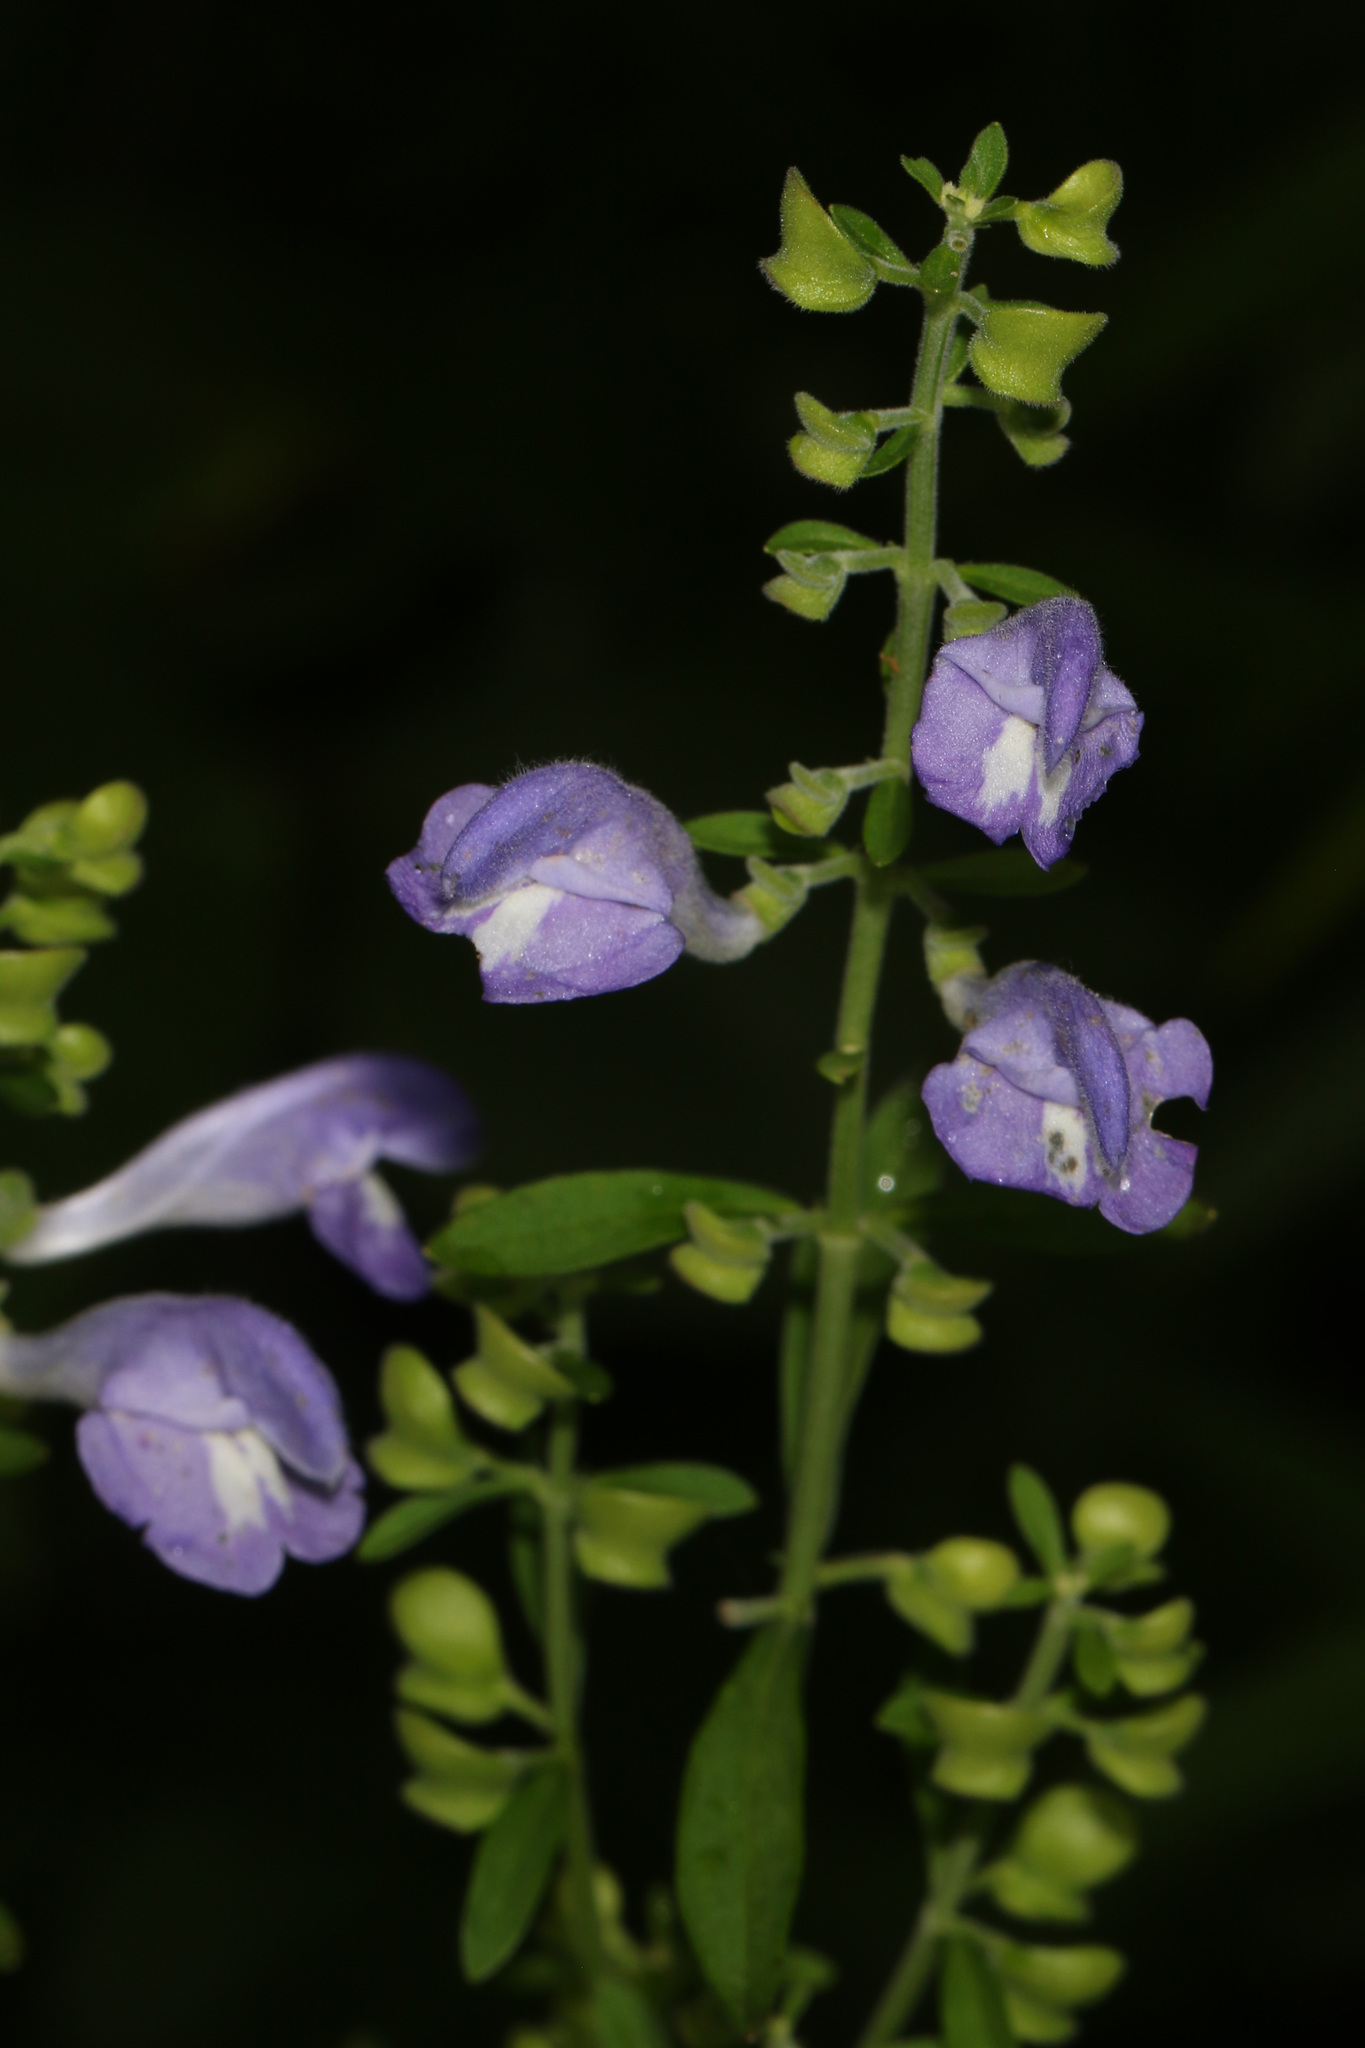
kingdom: Plantae
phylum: Tracheophyta
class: Magnoliopsida
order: Lamiales
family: Lamiaceae
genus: Scutellaria
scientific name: Scutellaria integrifolia
